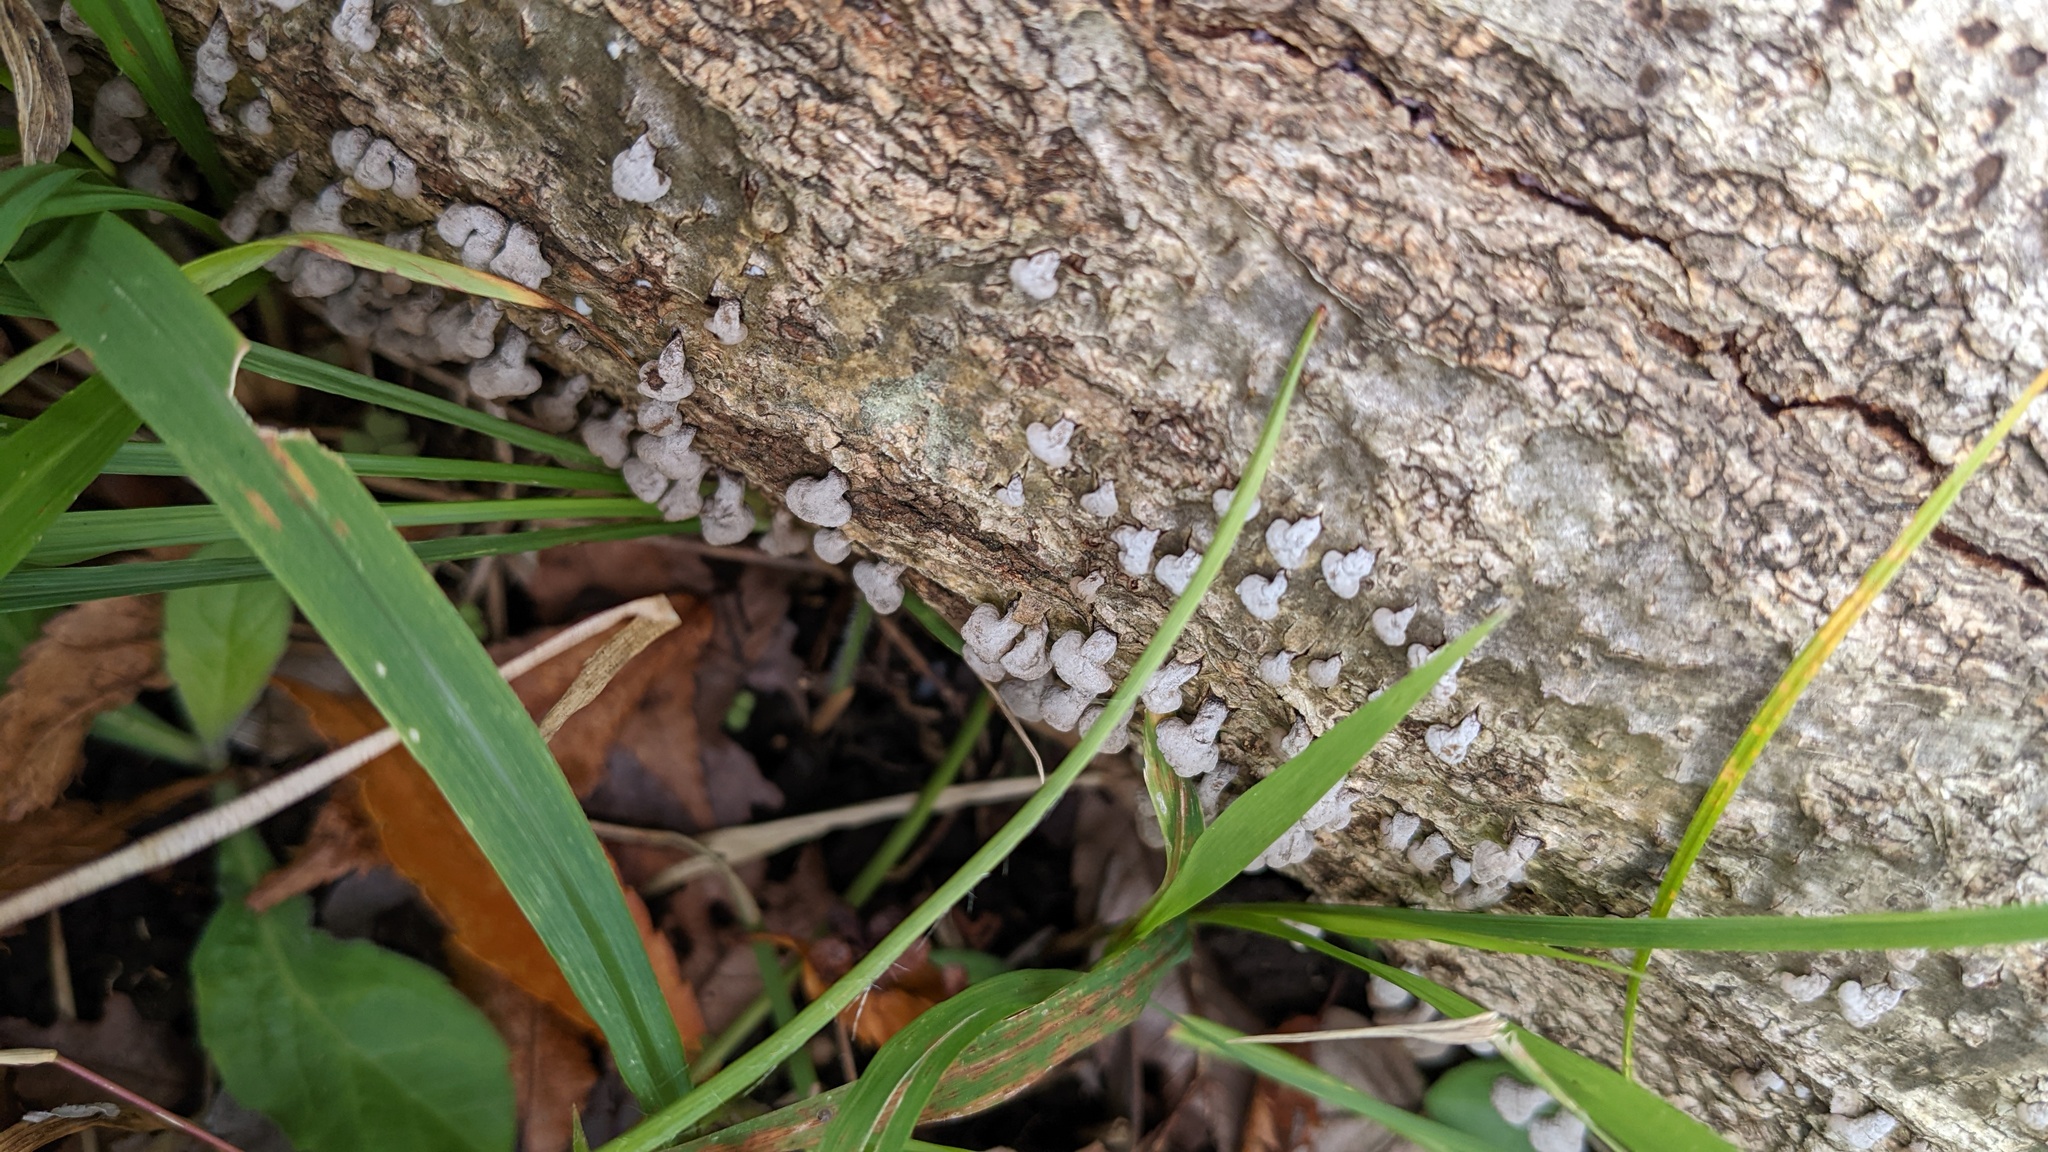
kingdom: Fungi
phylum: Basidiomycota
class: Agaricomycetes
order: Agaricales
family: Schizophyllaceae
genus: Porodisculus
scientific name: Porodisculus pendulus
